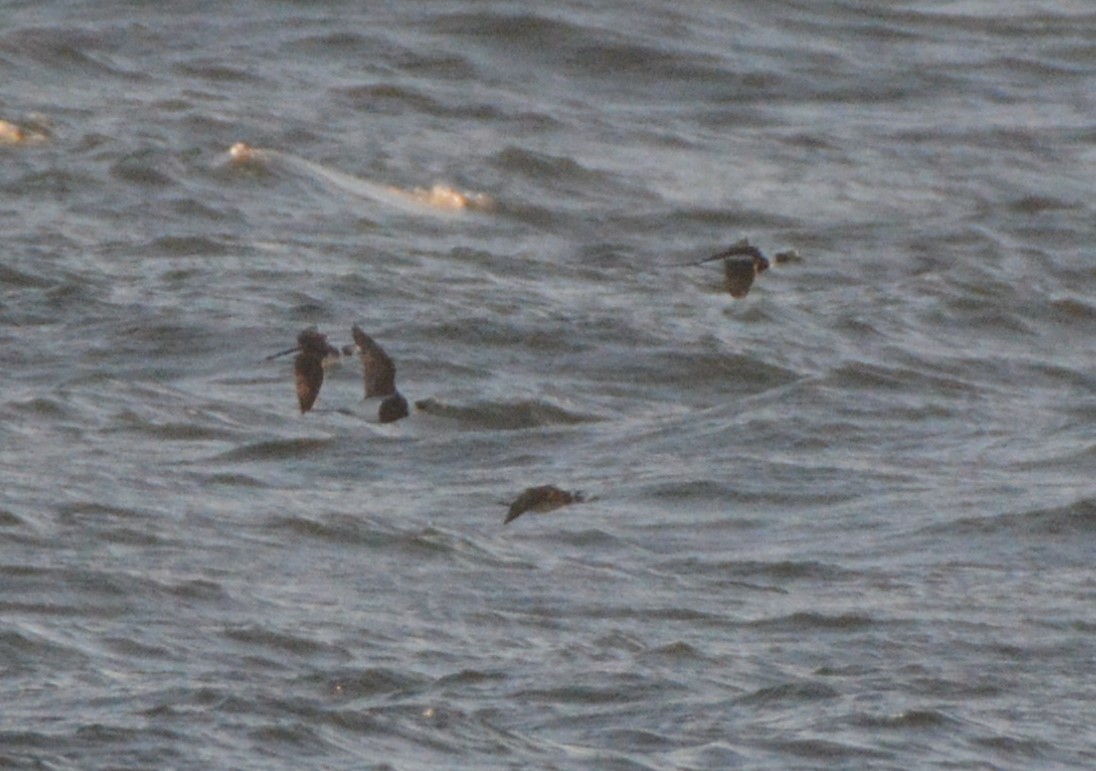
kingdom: Animalia
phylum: Chordata
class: Aves
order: Anseriformes
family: Anatidae
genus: Clangula
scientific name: Clangula hyemalis
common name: Long-tailed duck
